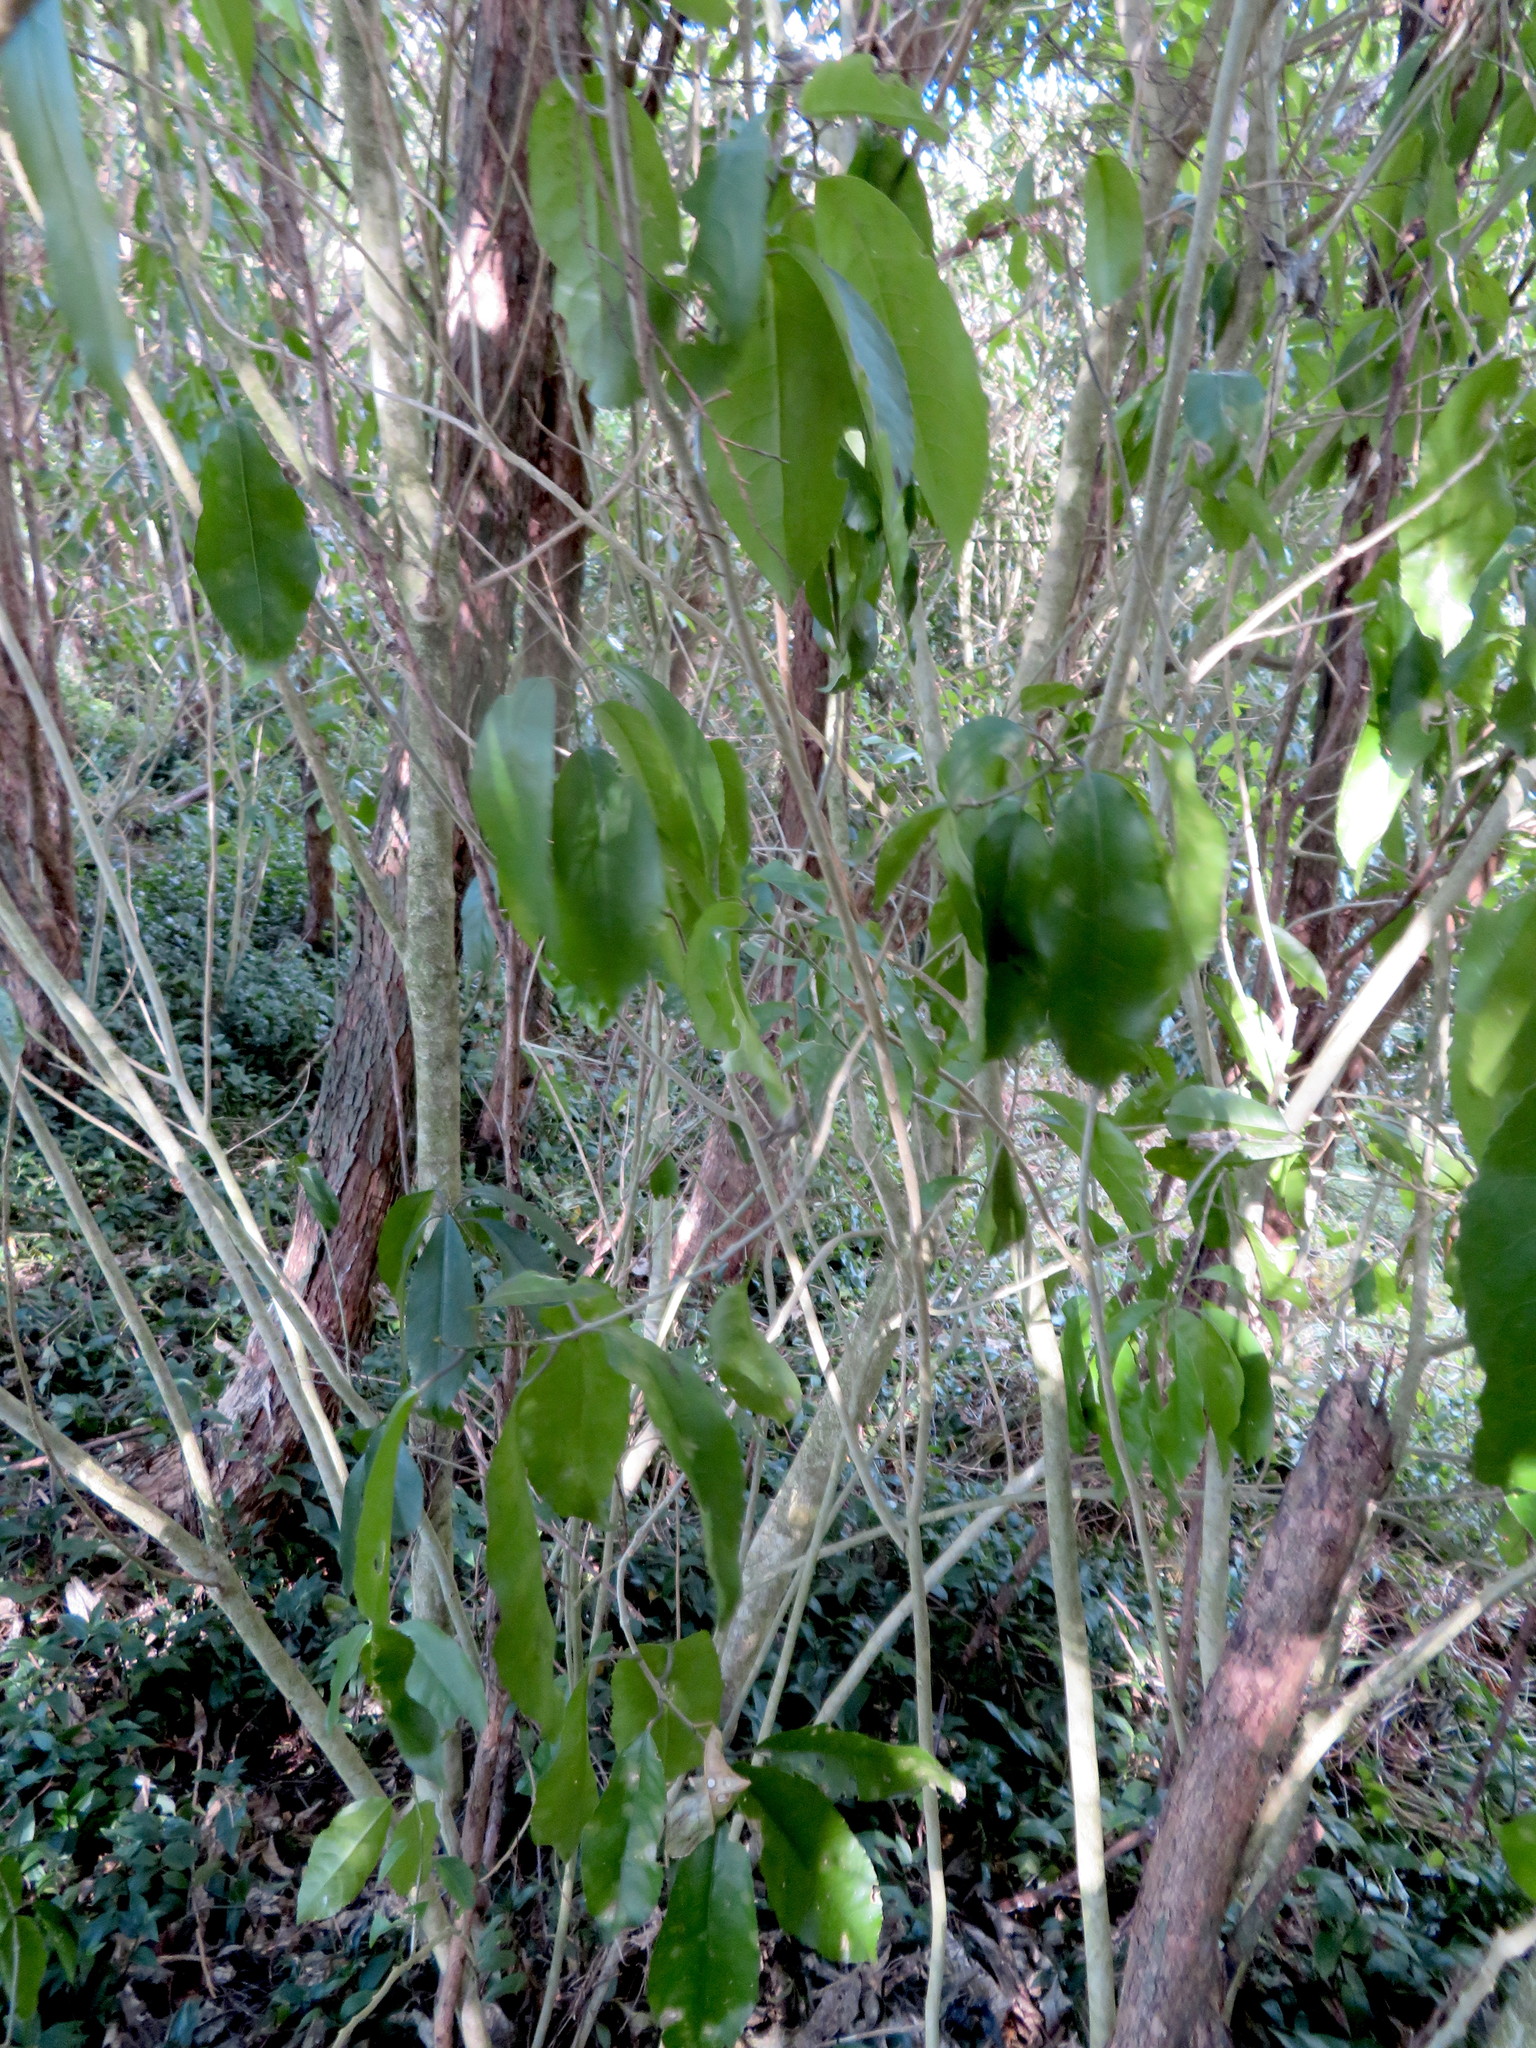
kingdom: Plantae
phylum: Tracheophyta
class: Magnoliopsida
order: Malpighiales
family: Violaceae
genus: Melicytus
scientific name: Melicytus ramiflorus
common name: Mahoe
